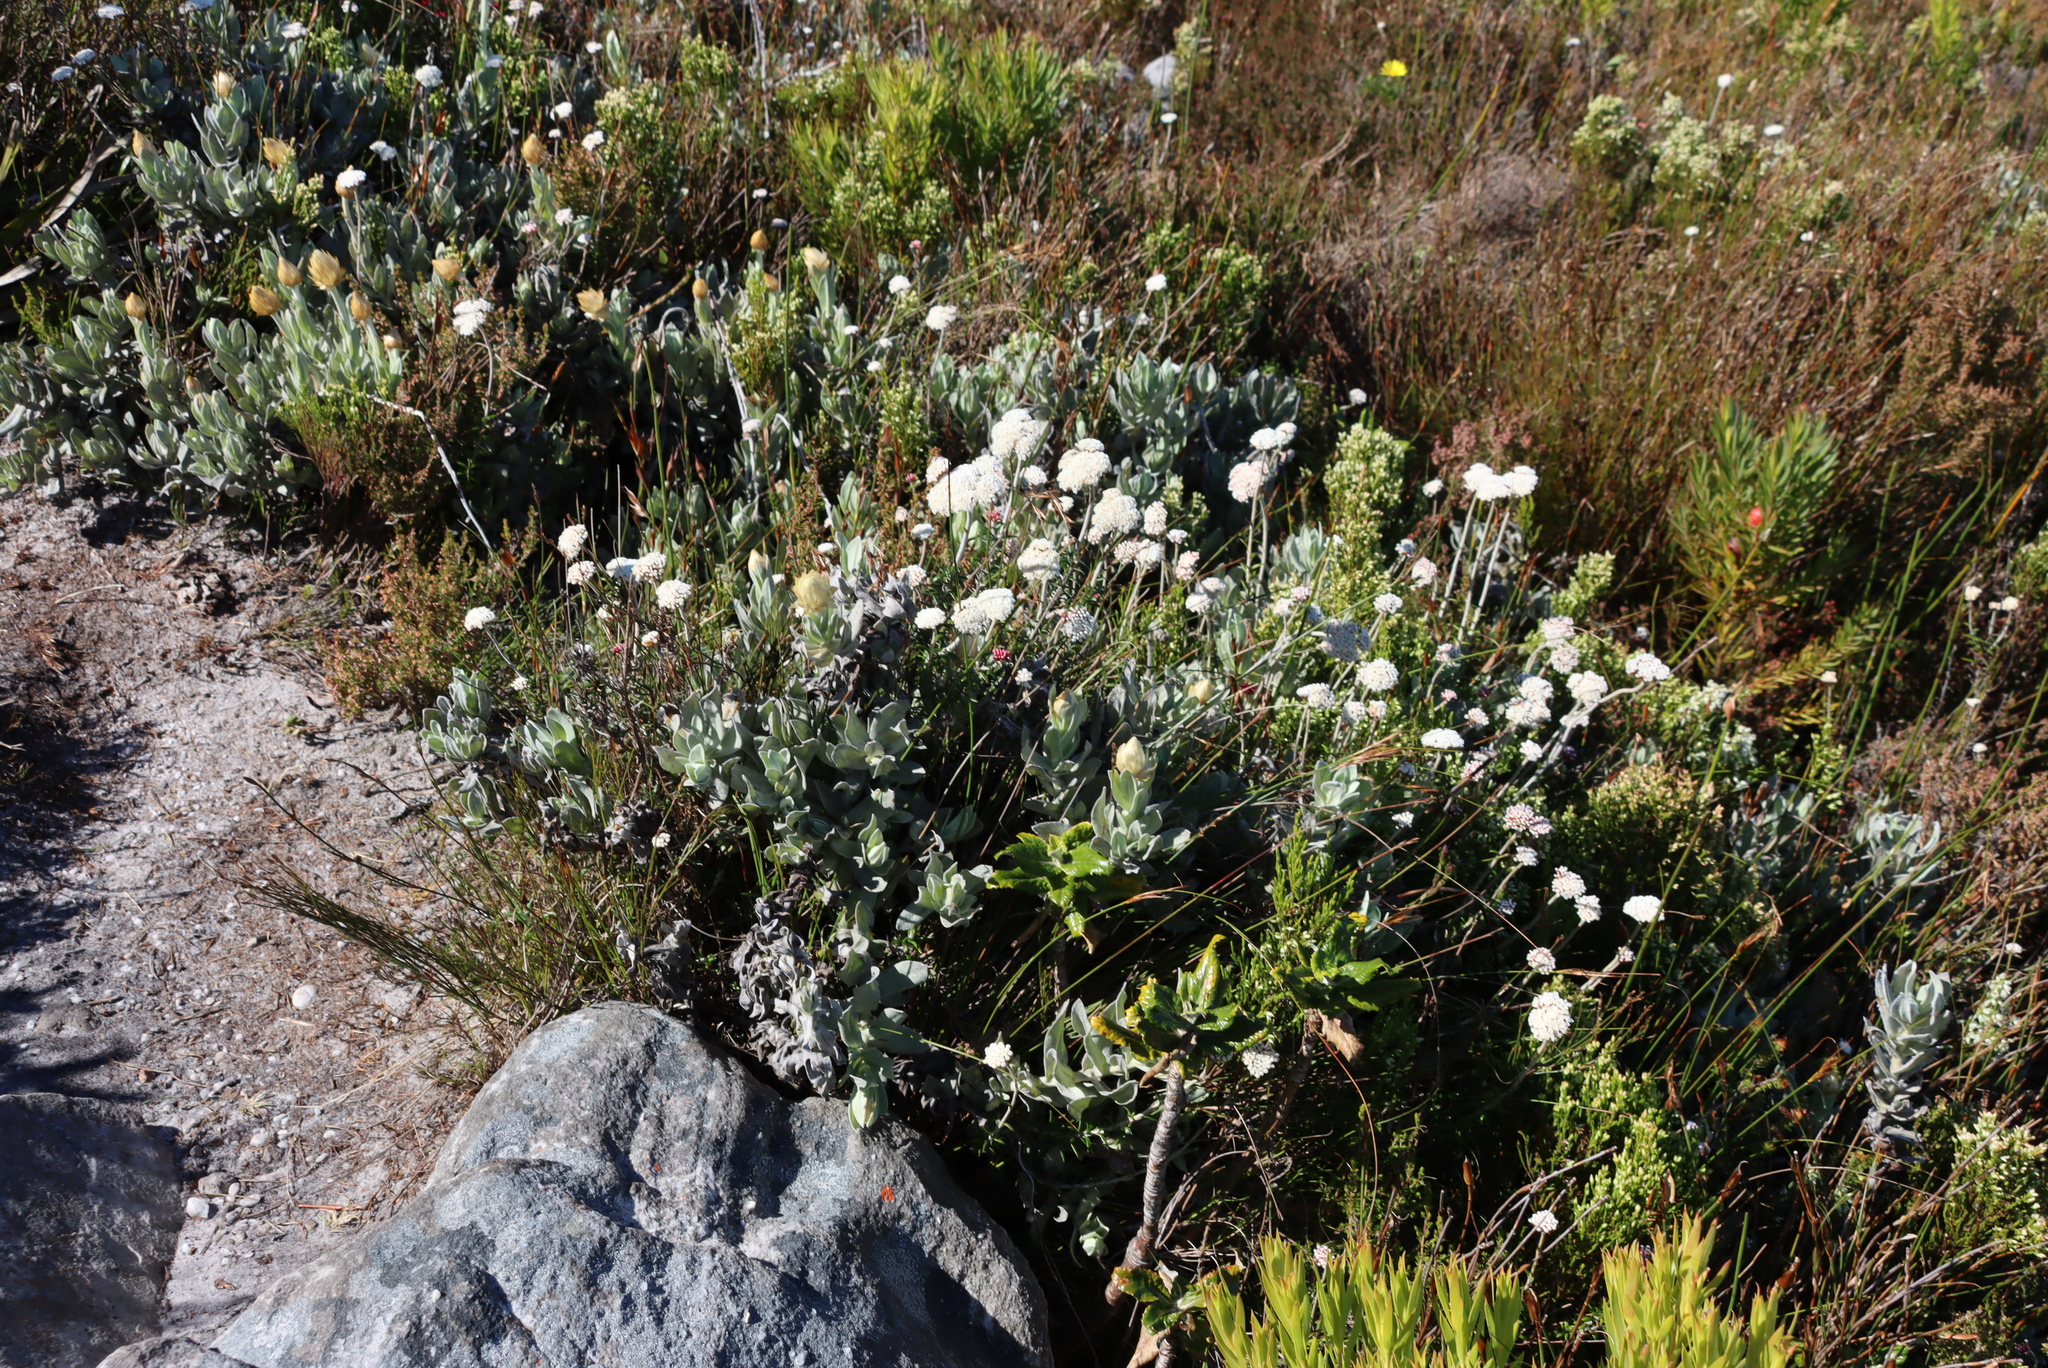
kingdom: Plantae
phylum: Tracheophyta
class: Magnoliopsida
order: Asterales
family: Asteraceae
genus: Anaxeton
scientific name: Anaxeton arborescens
